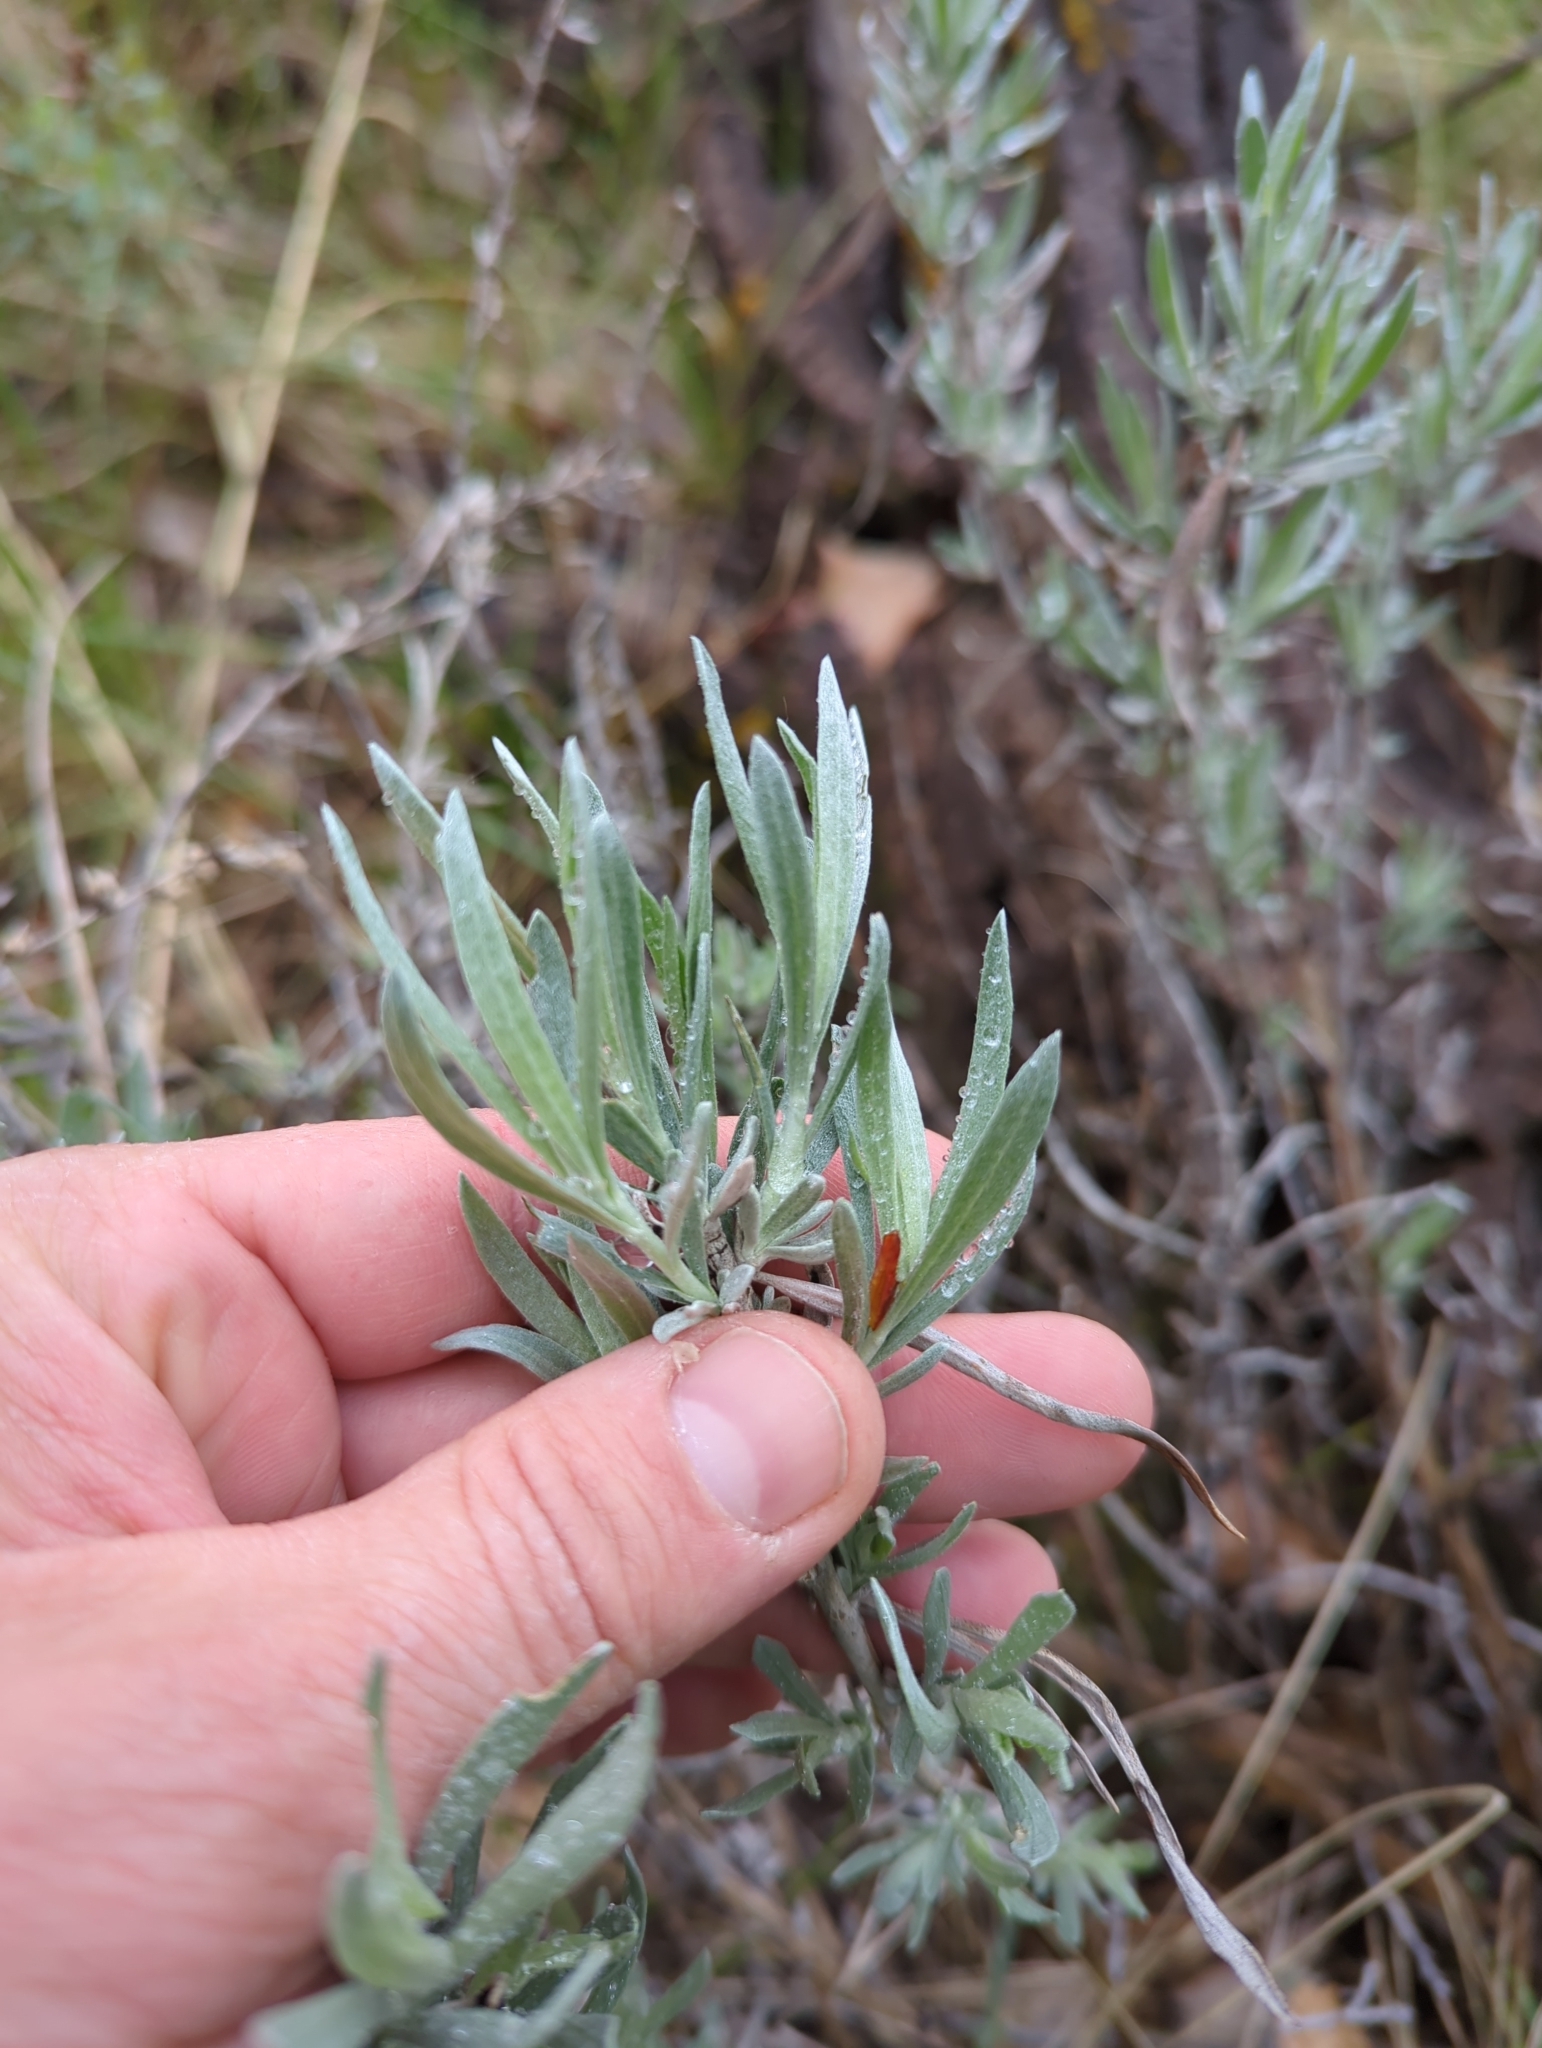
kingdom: Plantae
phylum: Tracheophyta
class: Magnoliopsida
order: Asterales
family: Asteraceae
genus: Artemisia
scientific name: Artemisia cana
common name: Silver sagebrush
